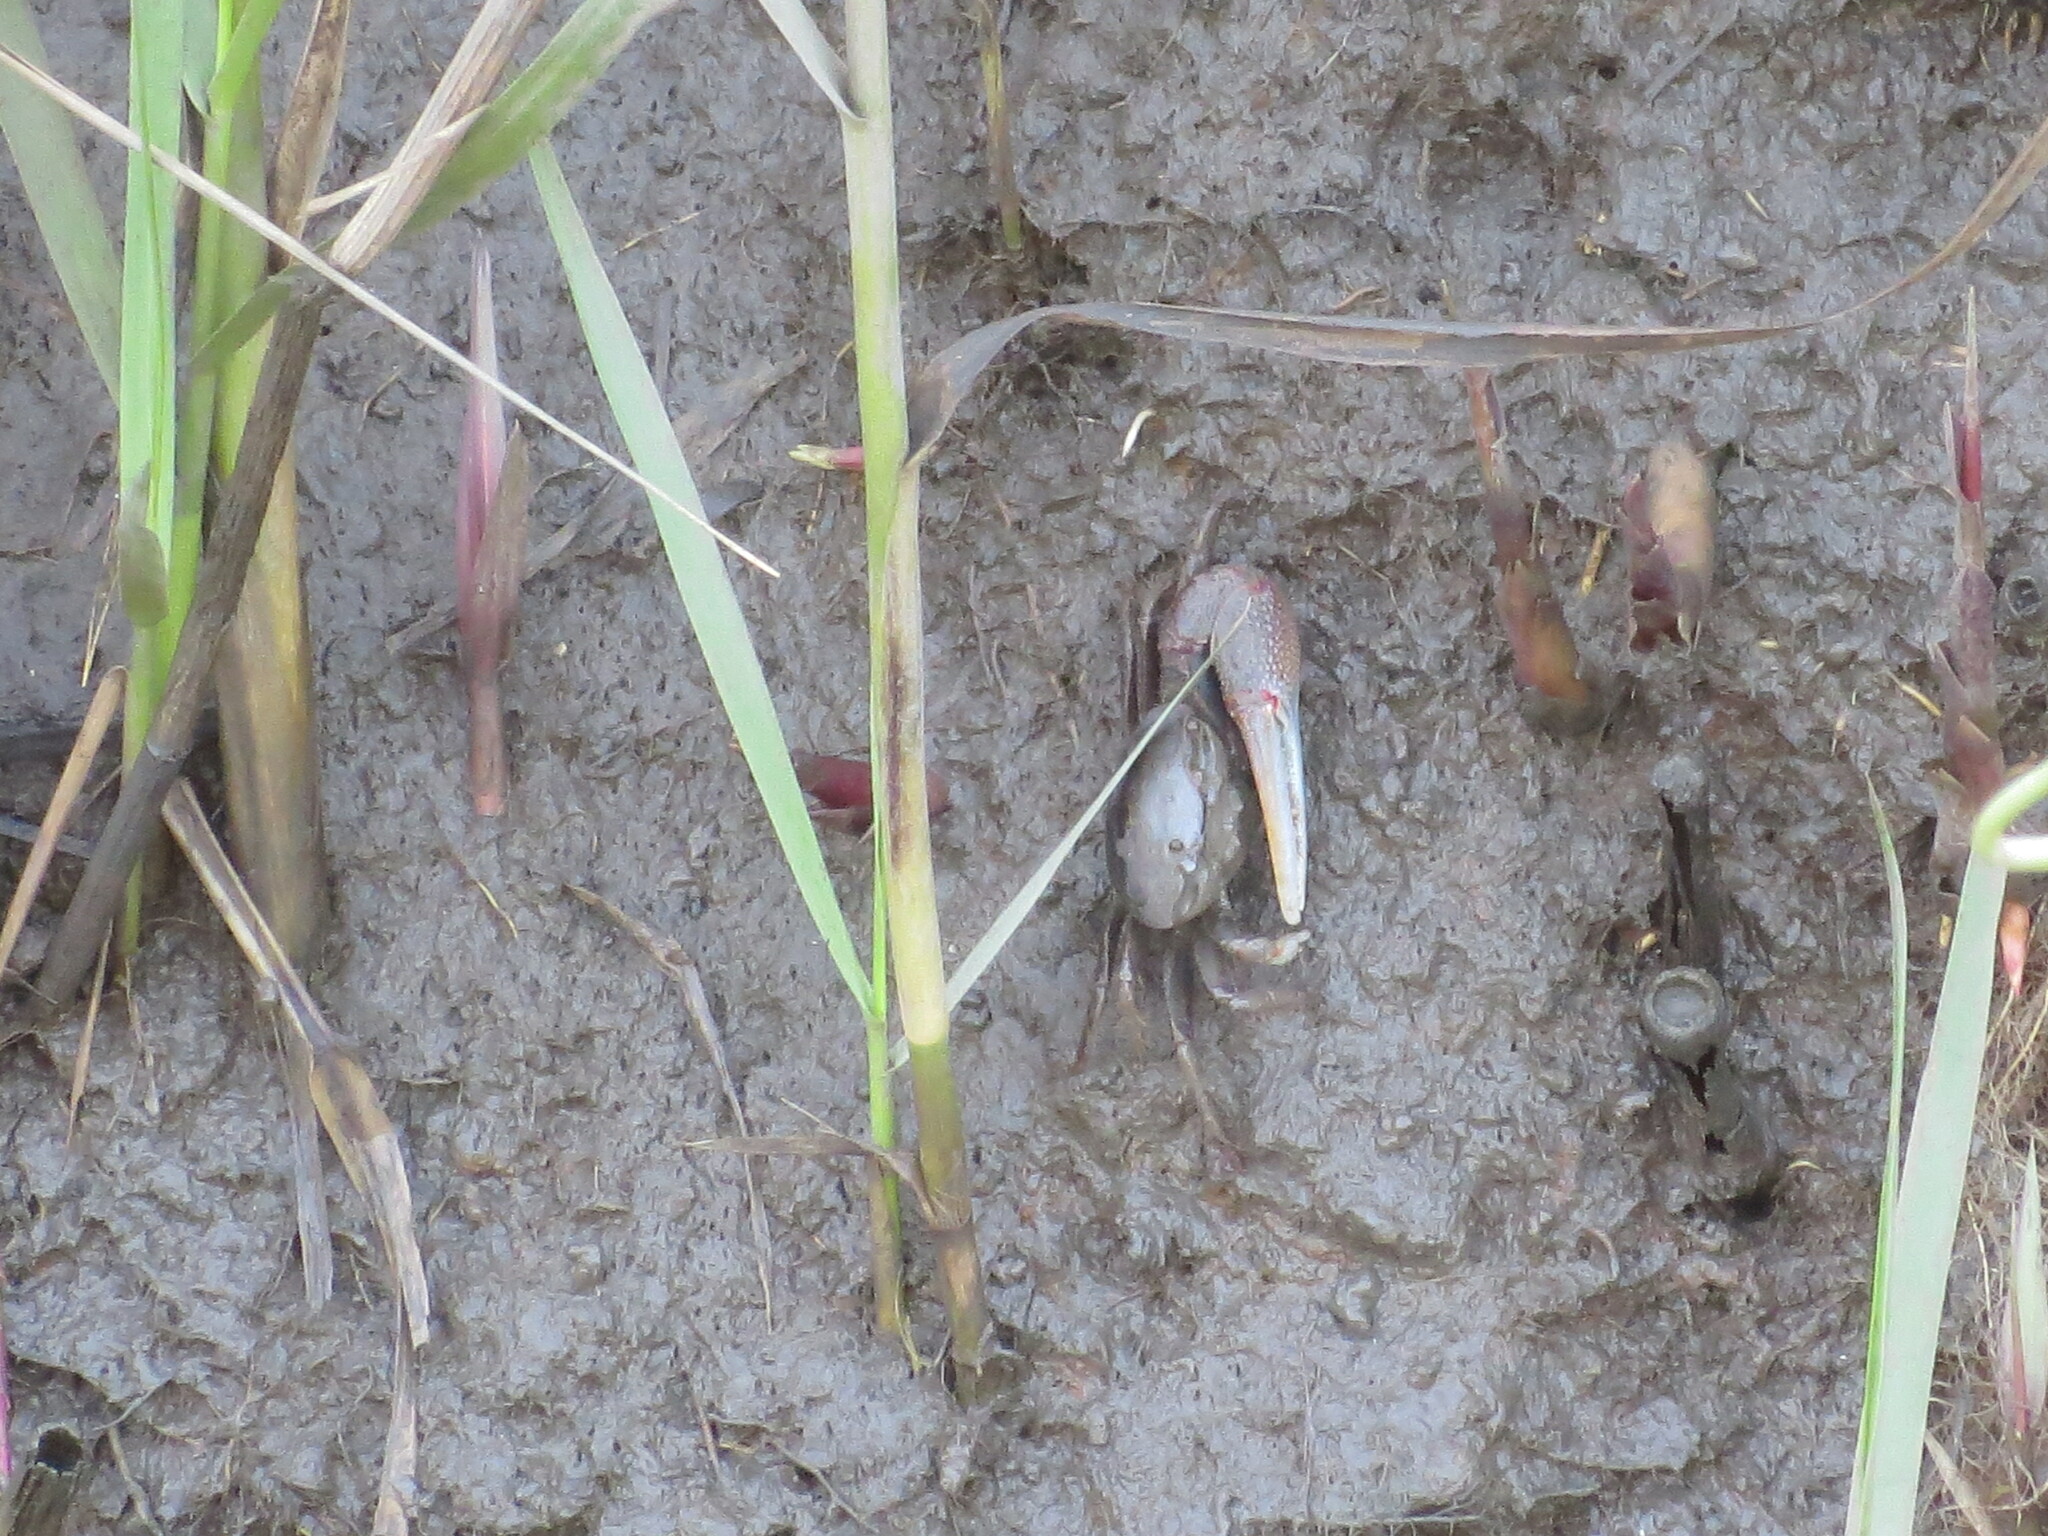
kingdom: Animalia
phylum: Arthropoda
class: Malacostraca
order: Decapoda
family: Ocypodidae
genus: Minuca
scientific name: Minuca minax
